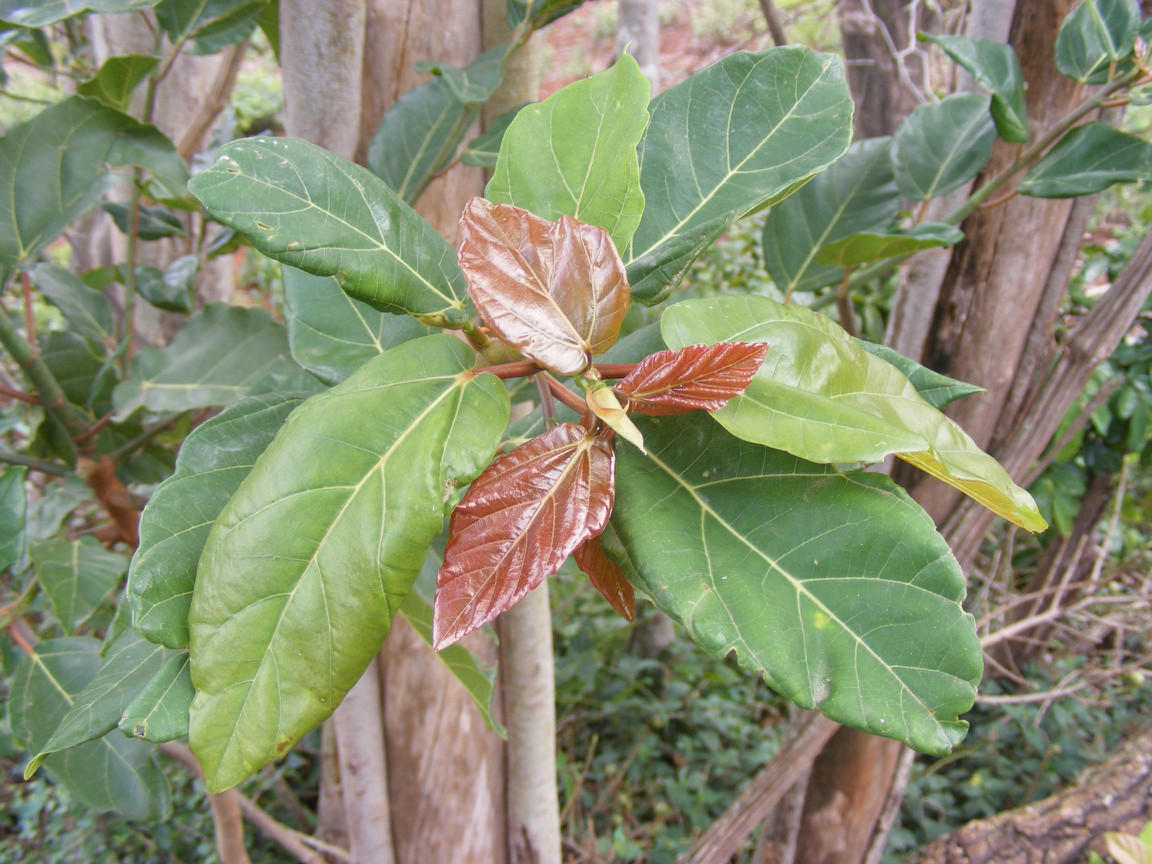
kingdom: Plantae
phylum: Tracheophyta
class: Magnoliopsida
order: Rosales
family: Moraceae
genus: Ficus
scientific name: Ficus sur
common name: Cape fig
